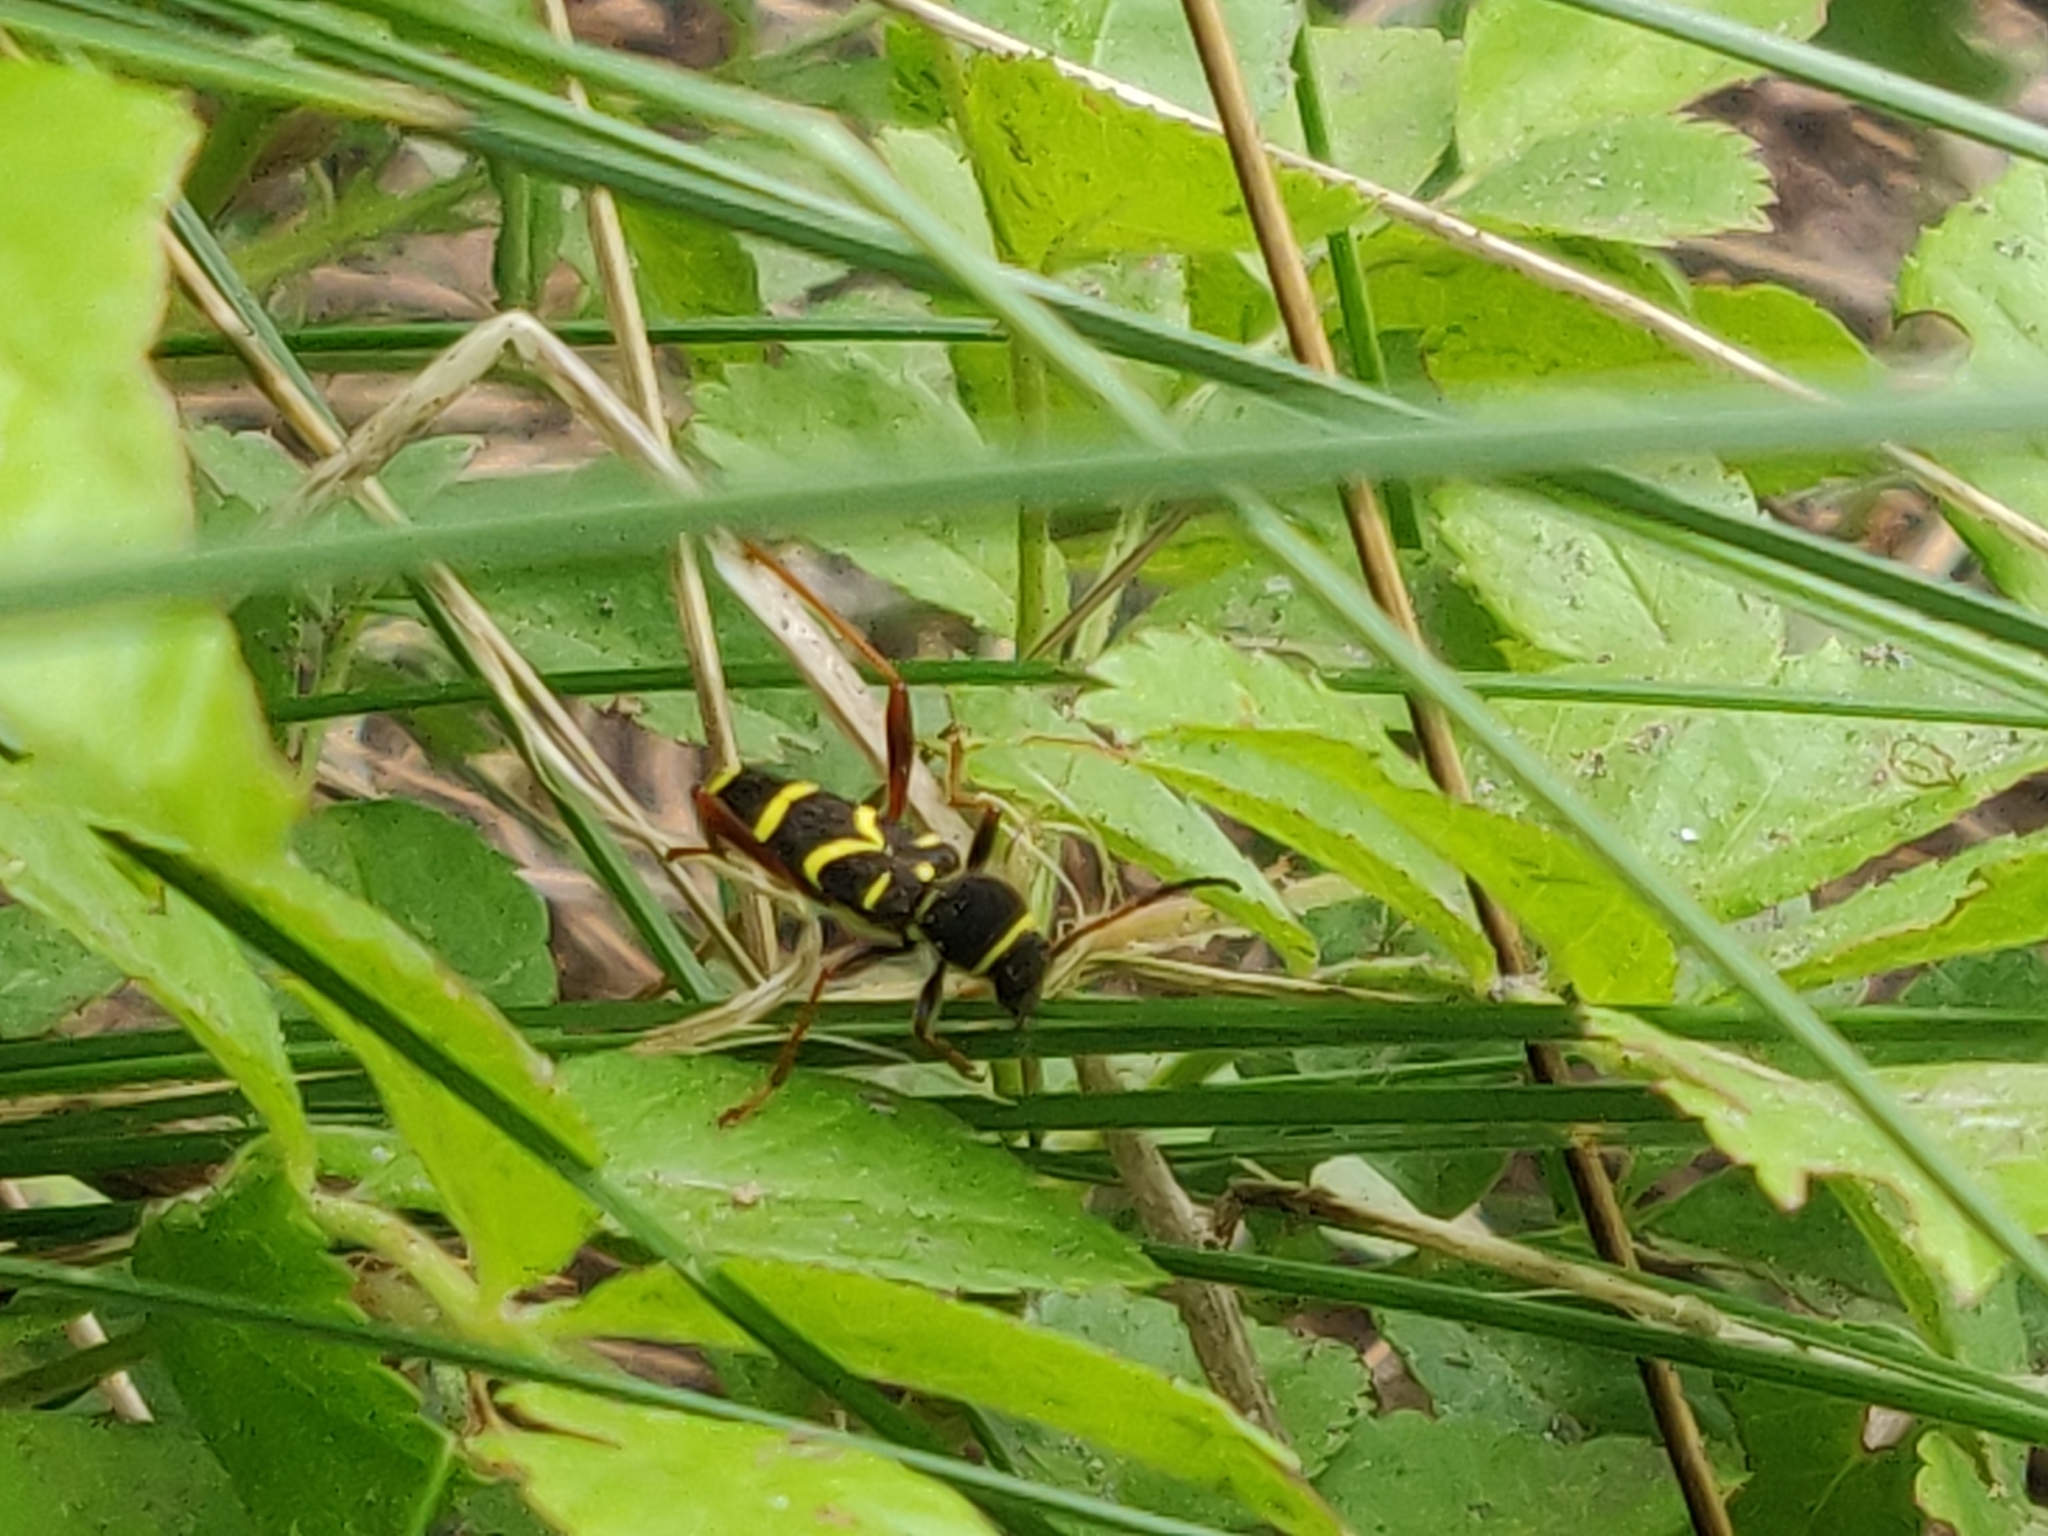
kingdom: Animalia
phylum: Arthropoda
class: Insecta
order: Coleoptera
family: Cerambycidae
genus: Clytus
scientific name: Clytus arietis
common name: Wasp beetle
